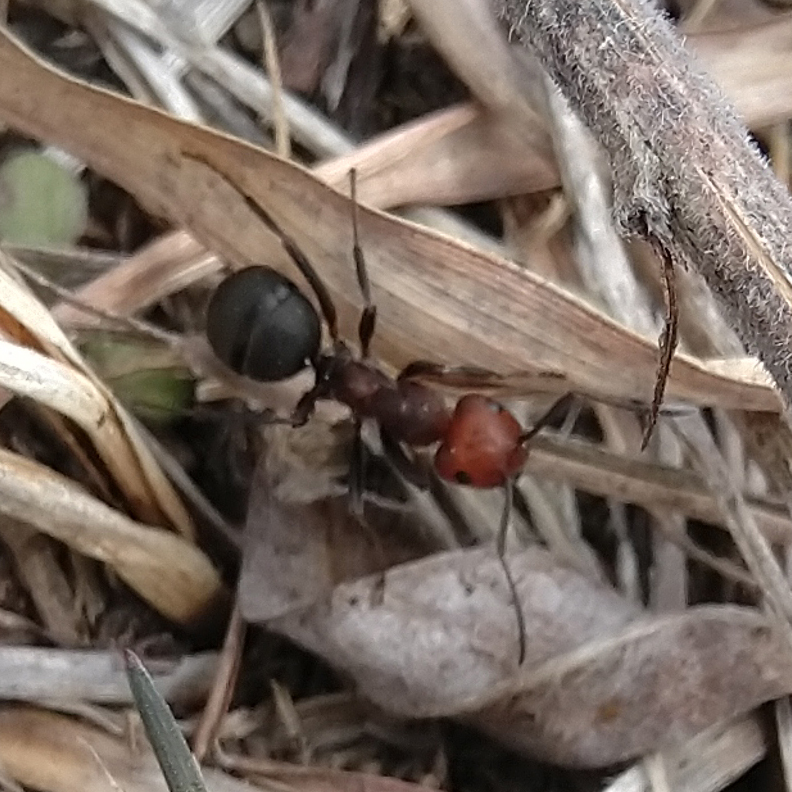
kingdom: Animalia
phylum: Arthropoda
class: Insecta
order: Hymenoptera
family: Formicidae
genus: Formica
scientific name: Formica obscuripes
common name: Western thatching ant
